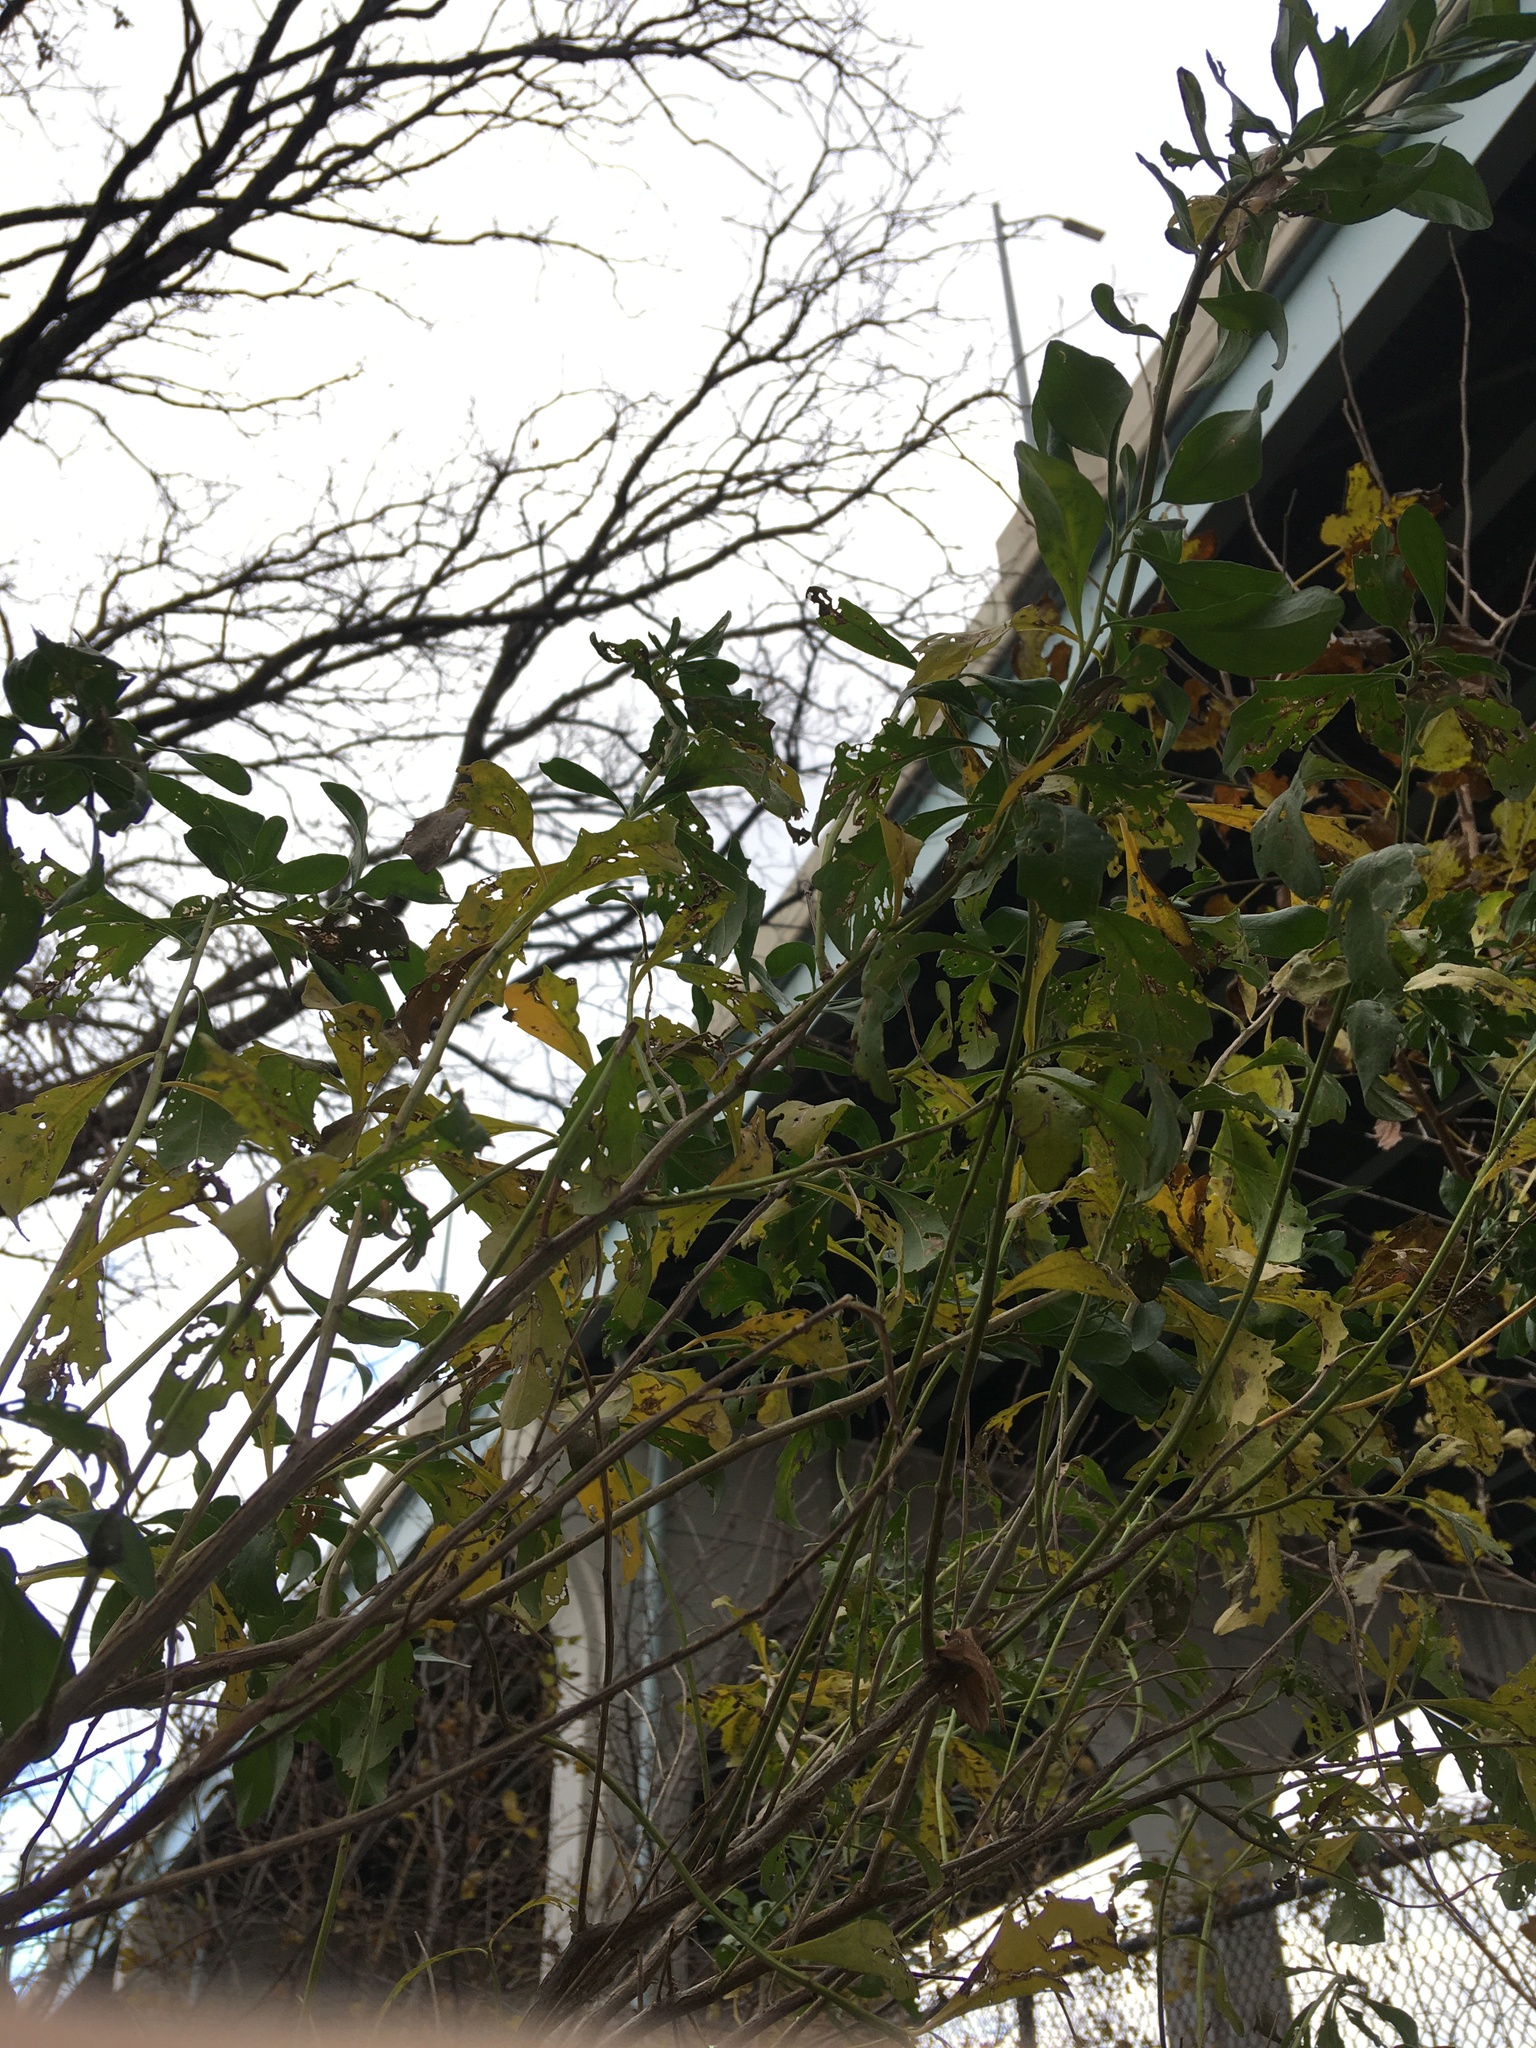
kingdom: Plantae
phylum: Tracheophyta
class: Magnoliopsida
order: Asterales
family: Asteraceae
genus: Baccharis
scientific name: Baccharis halimifolia
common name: Eastern baccharis
